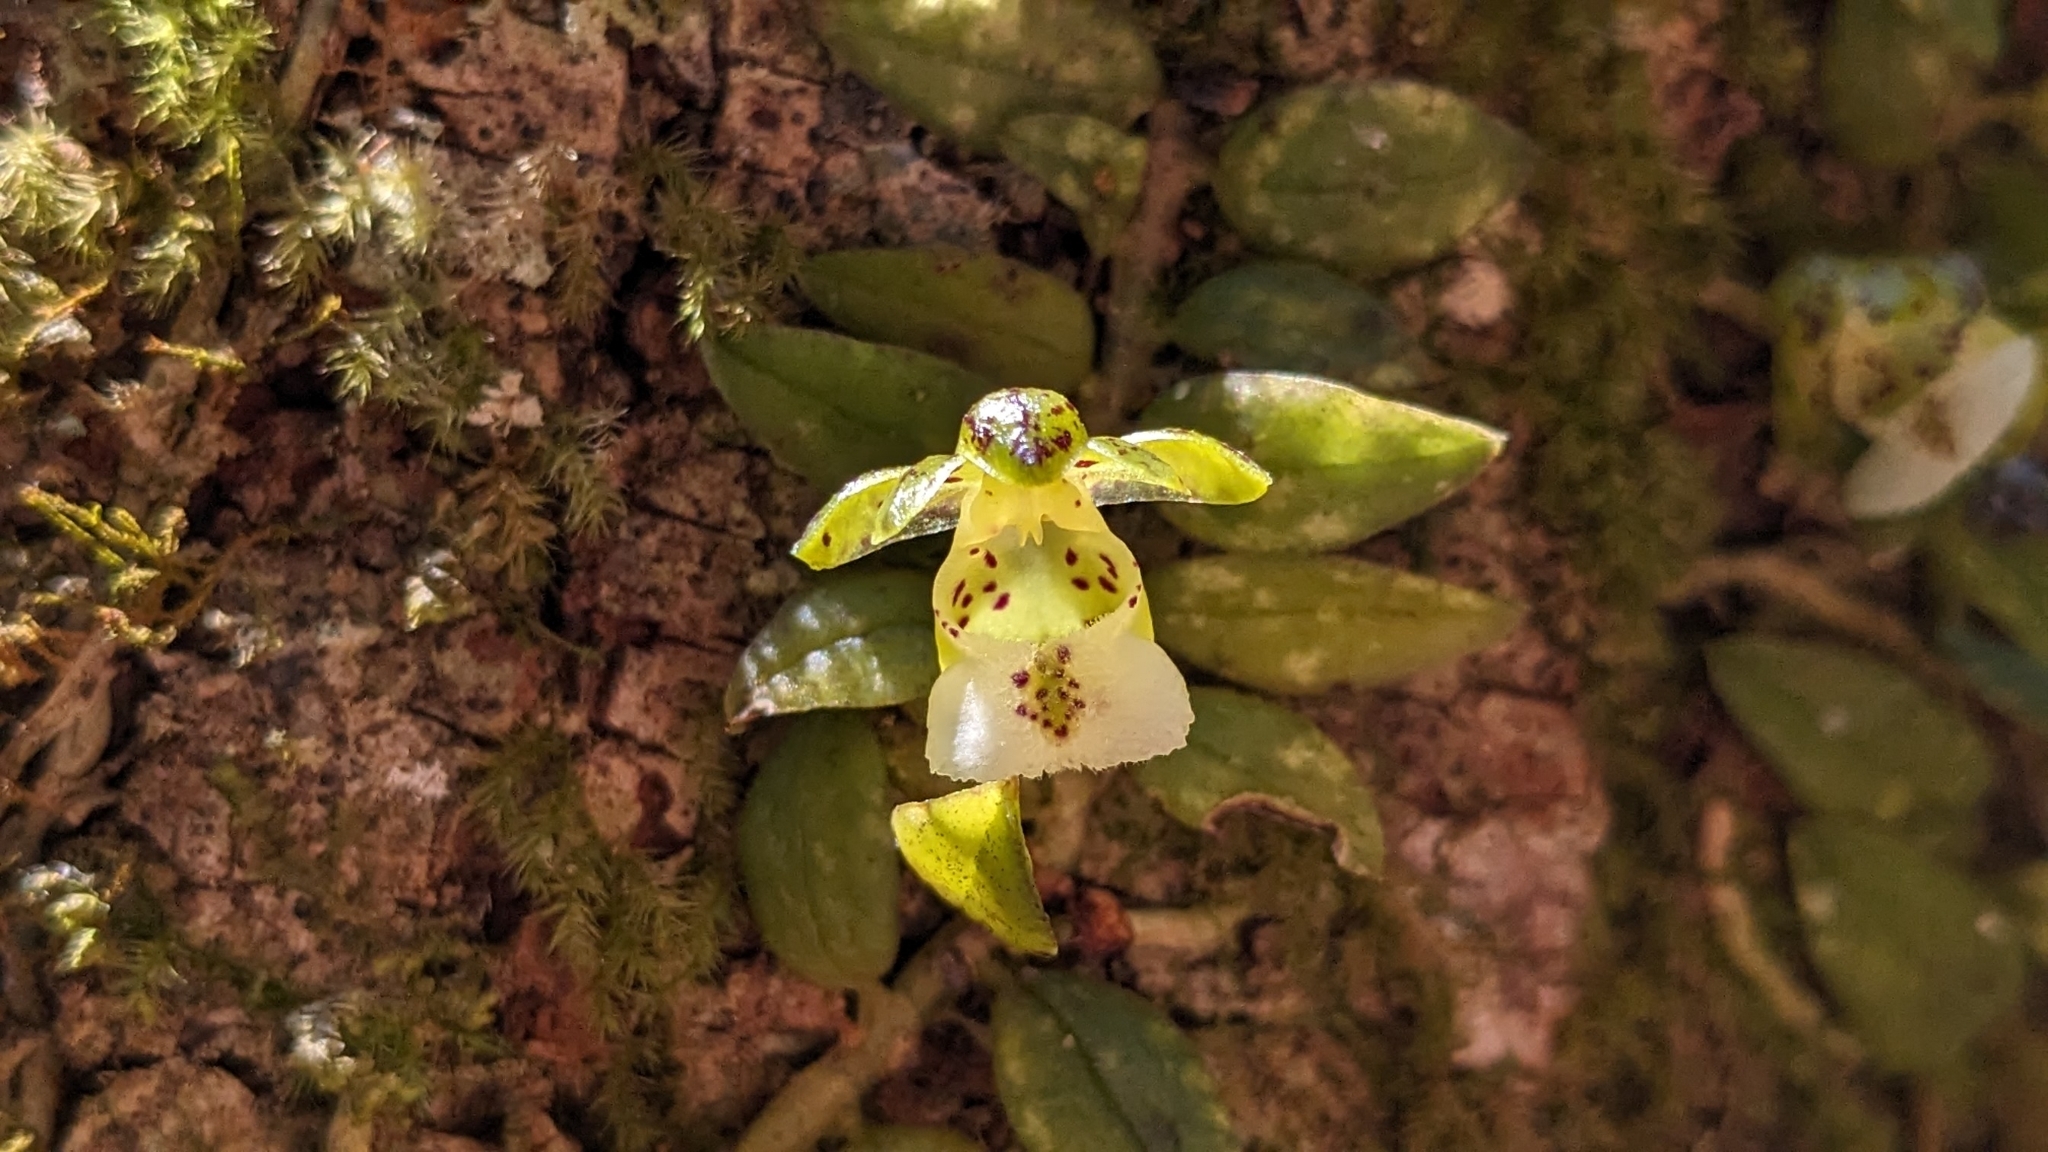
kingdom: Plantae
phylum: Tracheophyta
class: Liliopsida
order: Asparagales
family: Orchidaceae
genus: Gastrochilus
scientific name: Gastrochilus formosanus
